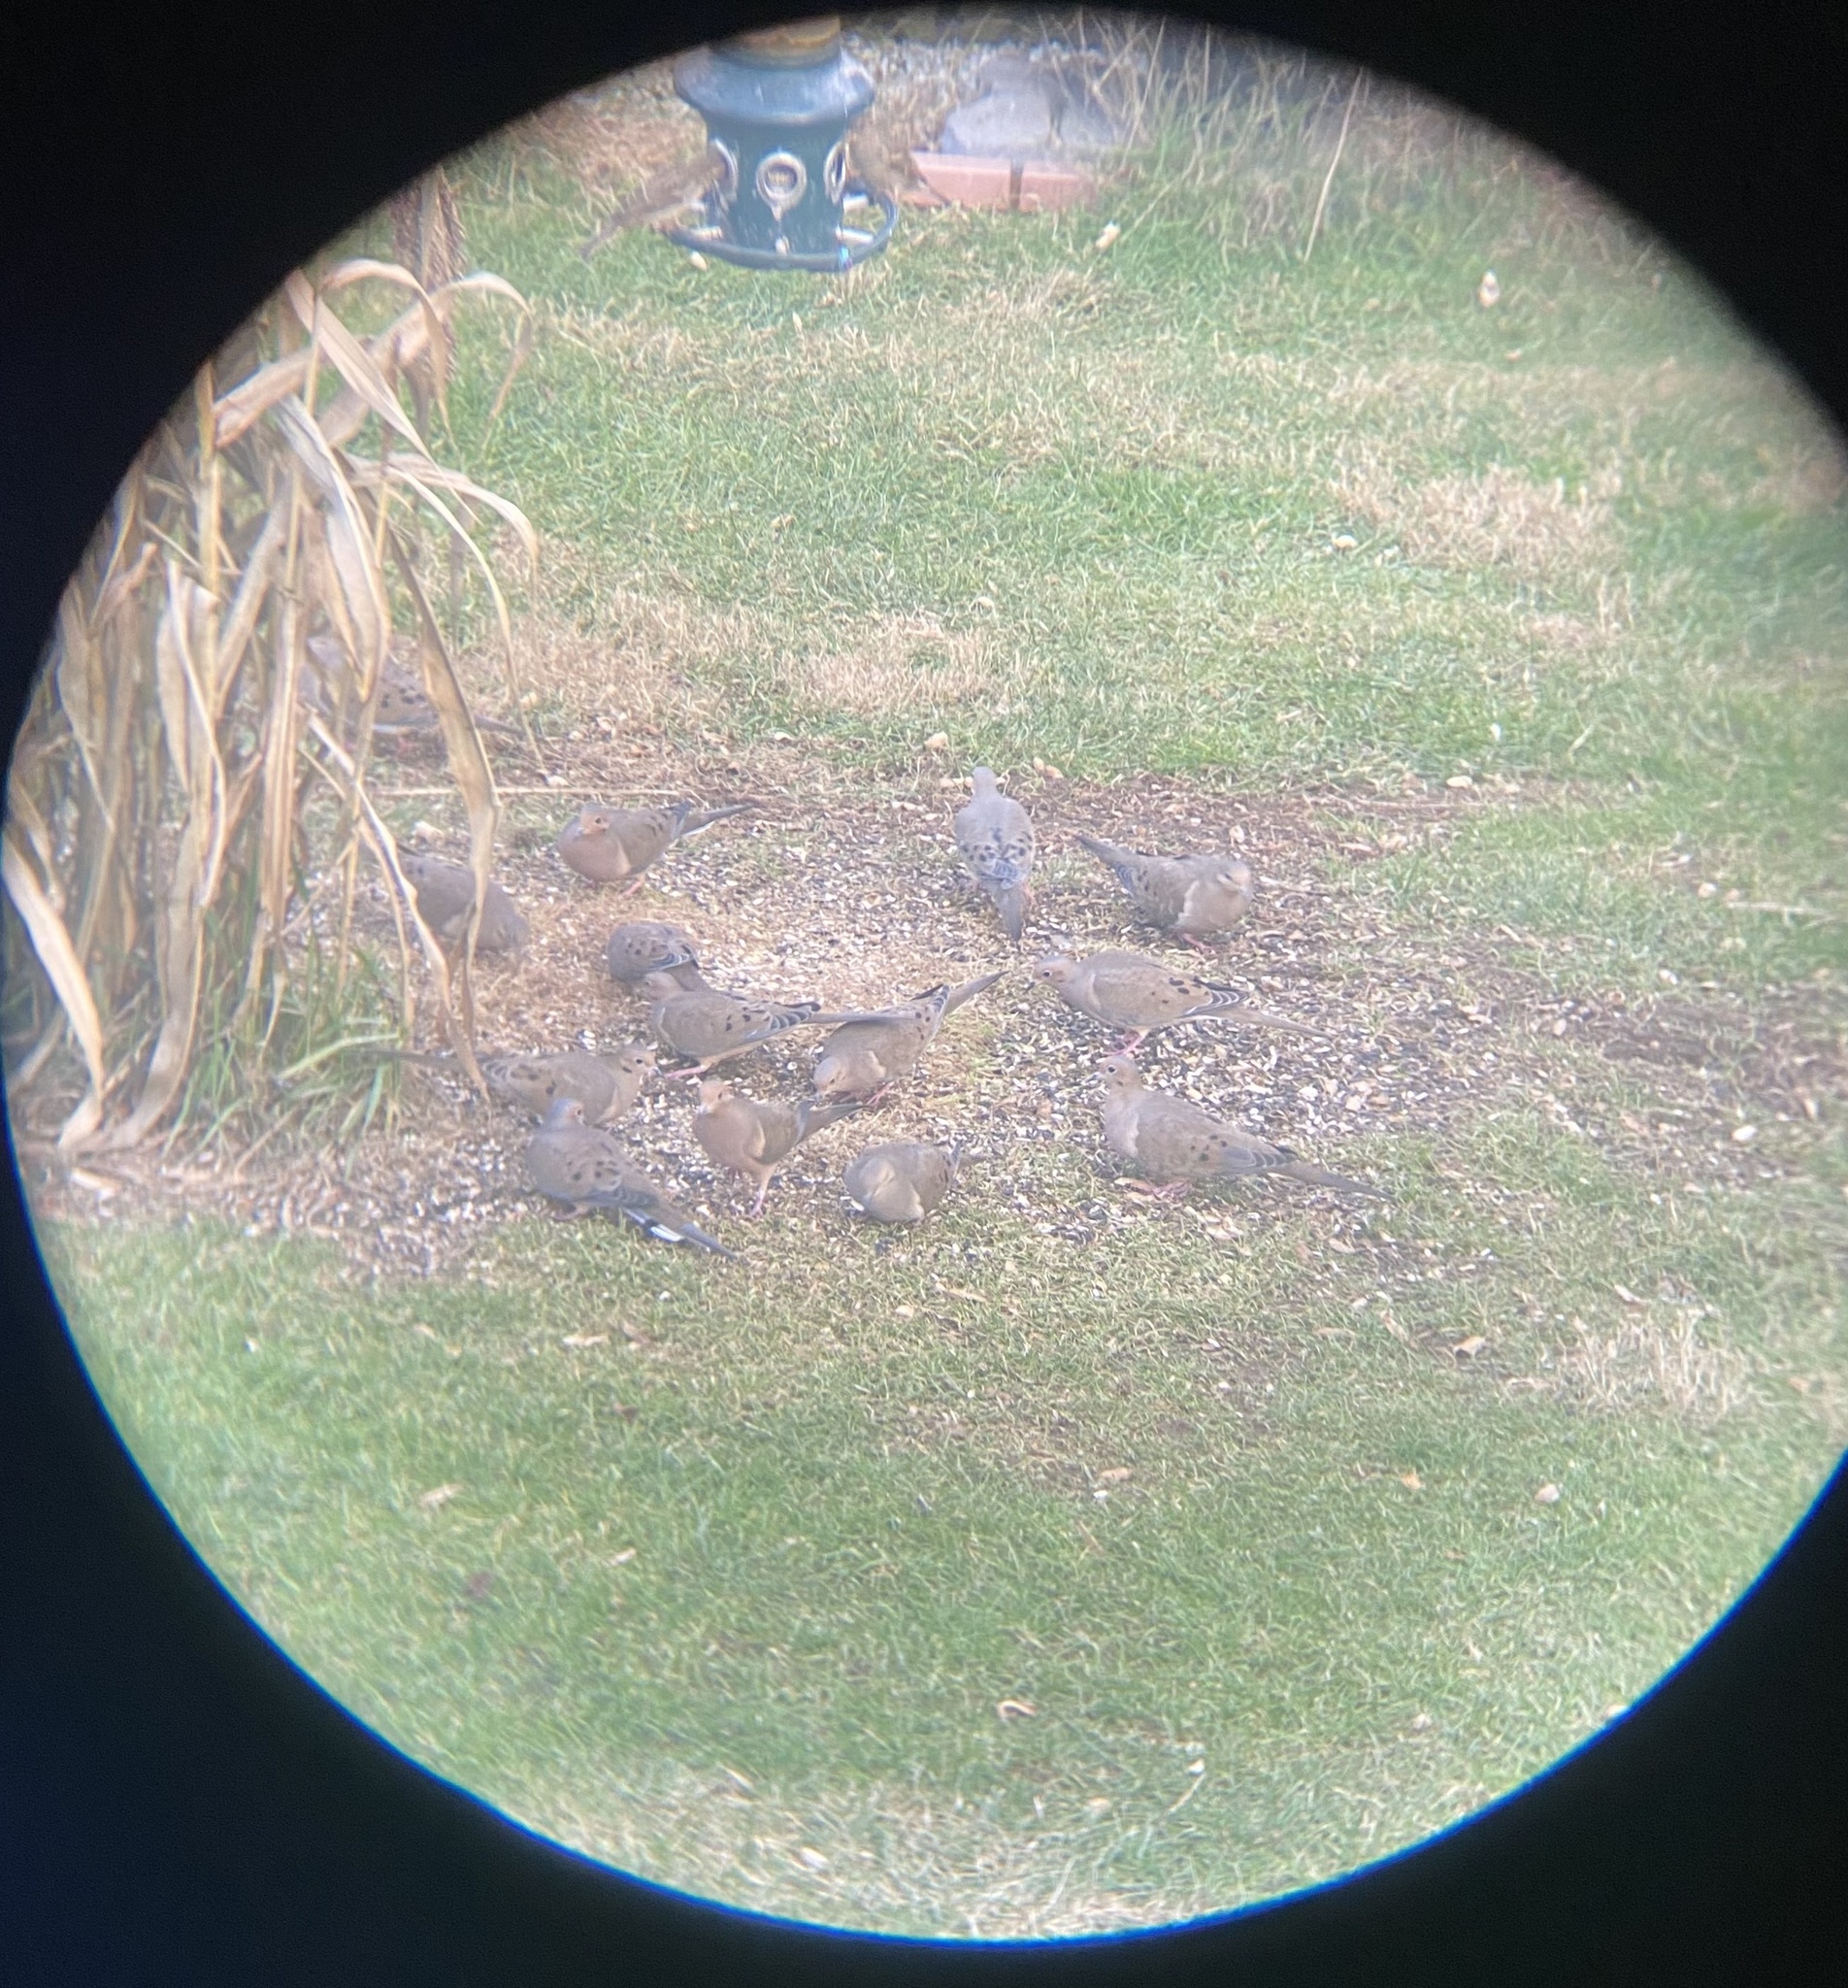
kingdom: Animalia
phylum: Chordata
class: Aves
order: Columbiformes
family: Columbidae
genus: Zenaida
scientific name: Zenaida macroura
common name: Mourning dove
